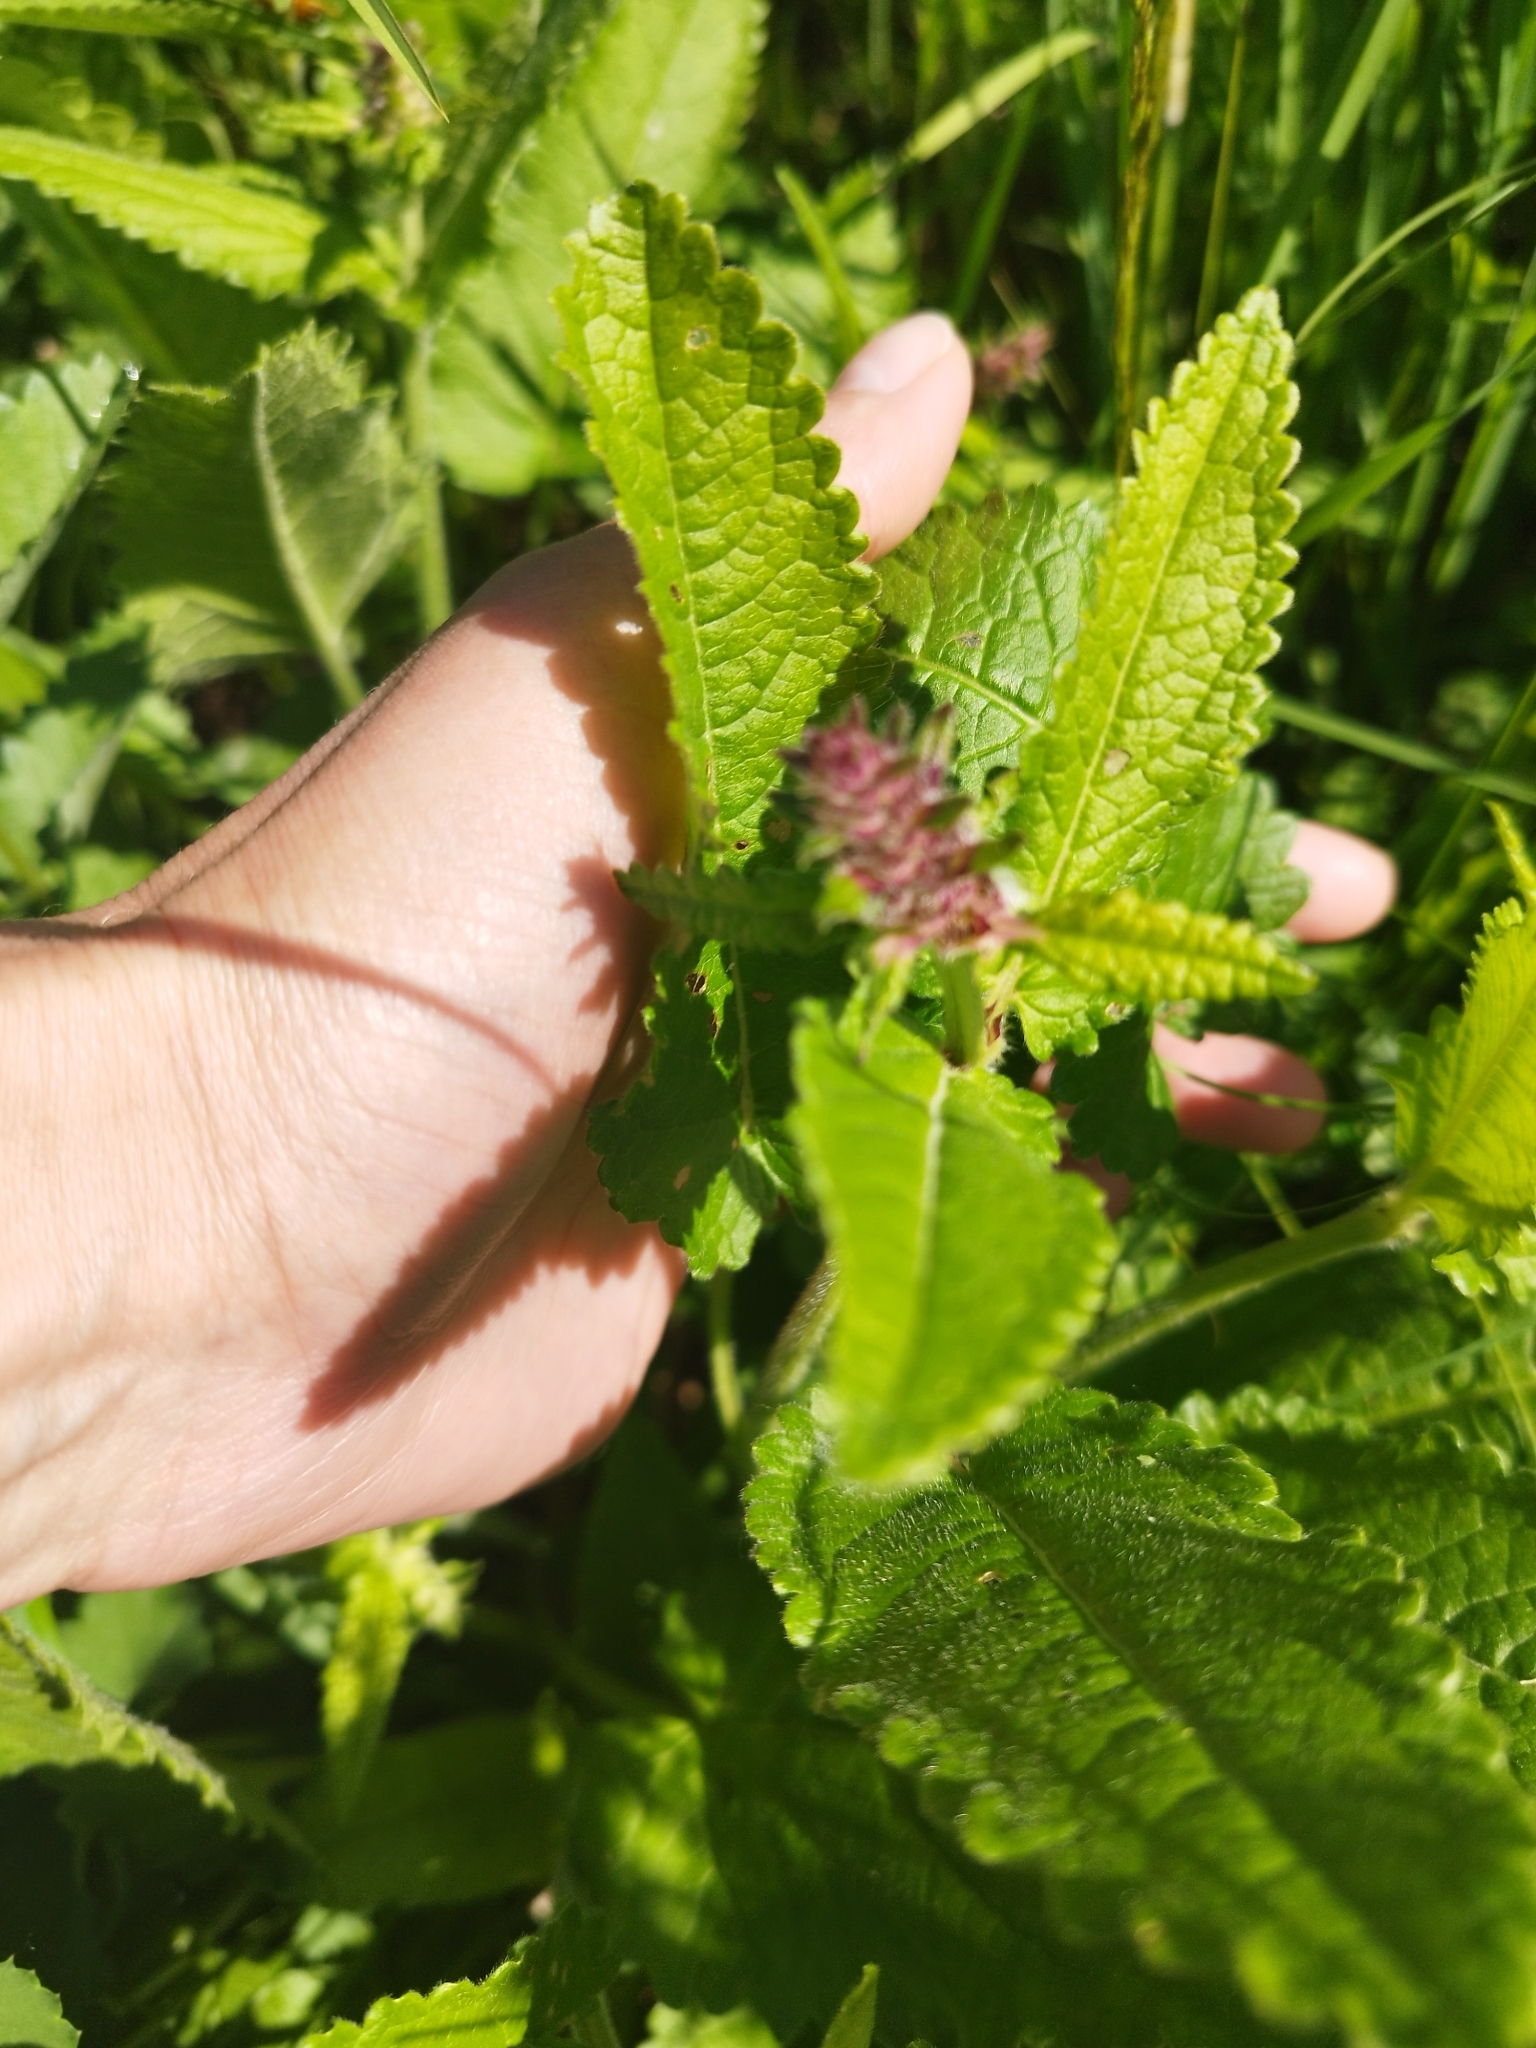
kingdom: Plantae
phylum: Tracheophyta
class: Magnoliopsida
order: Lamiales
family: Lamiaceae
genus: Betonica
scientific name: Betonica officinalis
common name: Bishop's-wort
